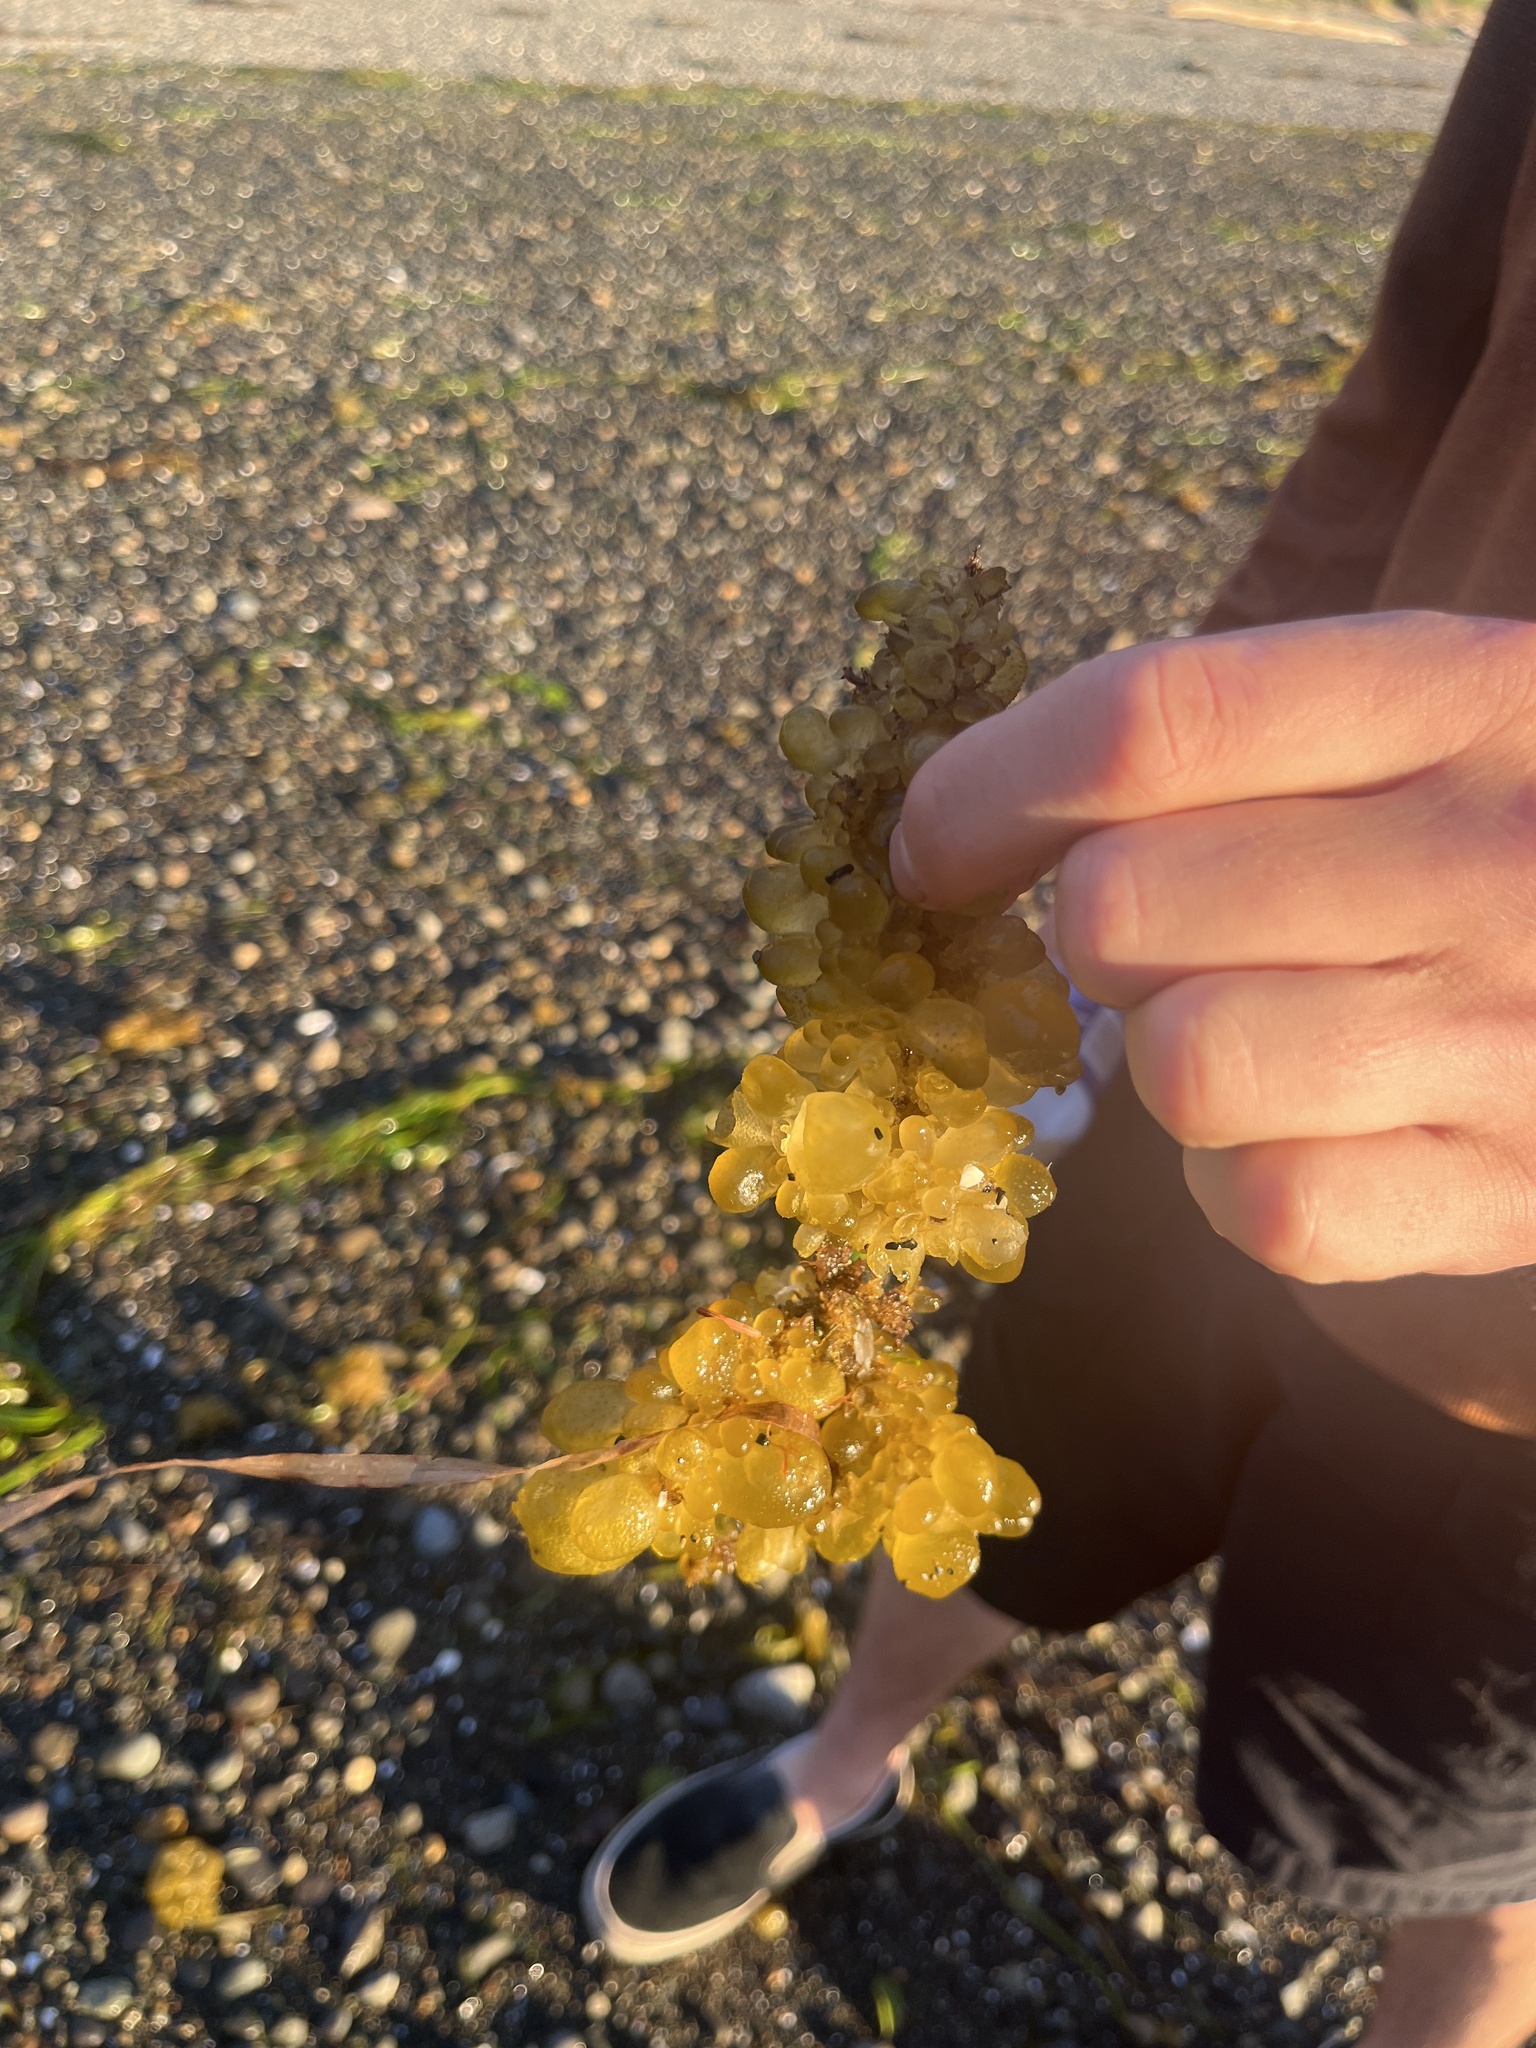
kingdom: Chromista
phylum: Ochrophyta
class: Phaeophyceae
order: Dictyosiphonales
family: Punctariaceae
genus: Soranthera
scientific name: Soranthera ulvoidea
